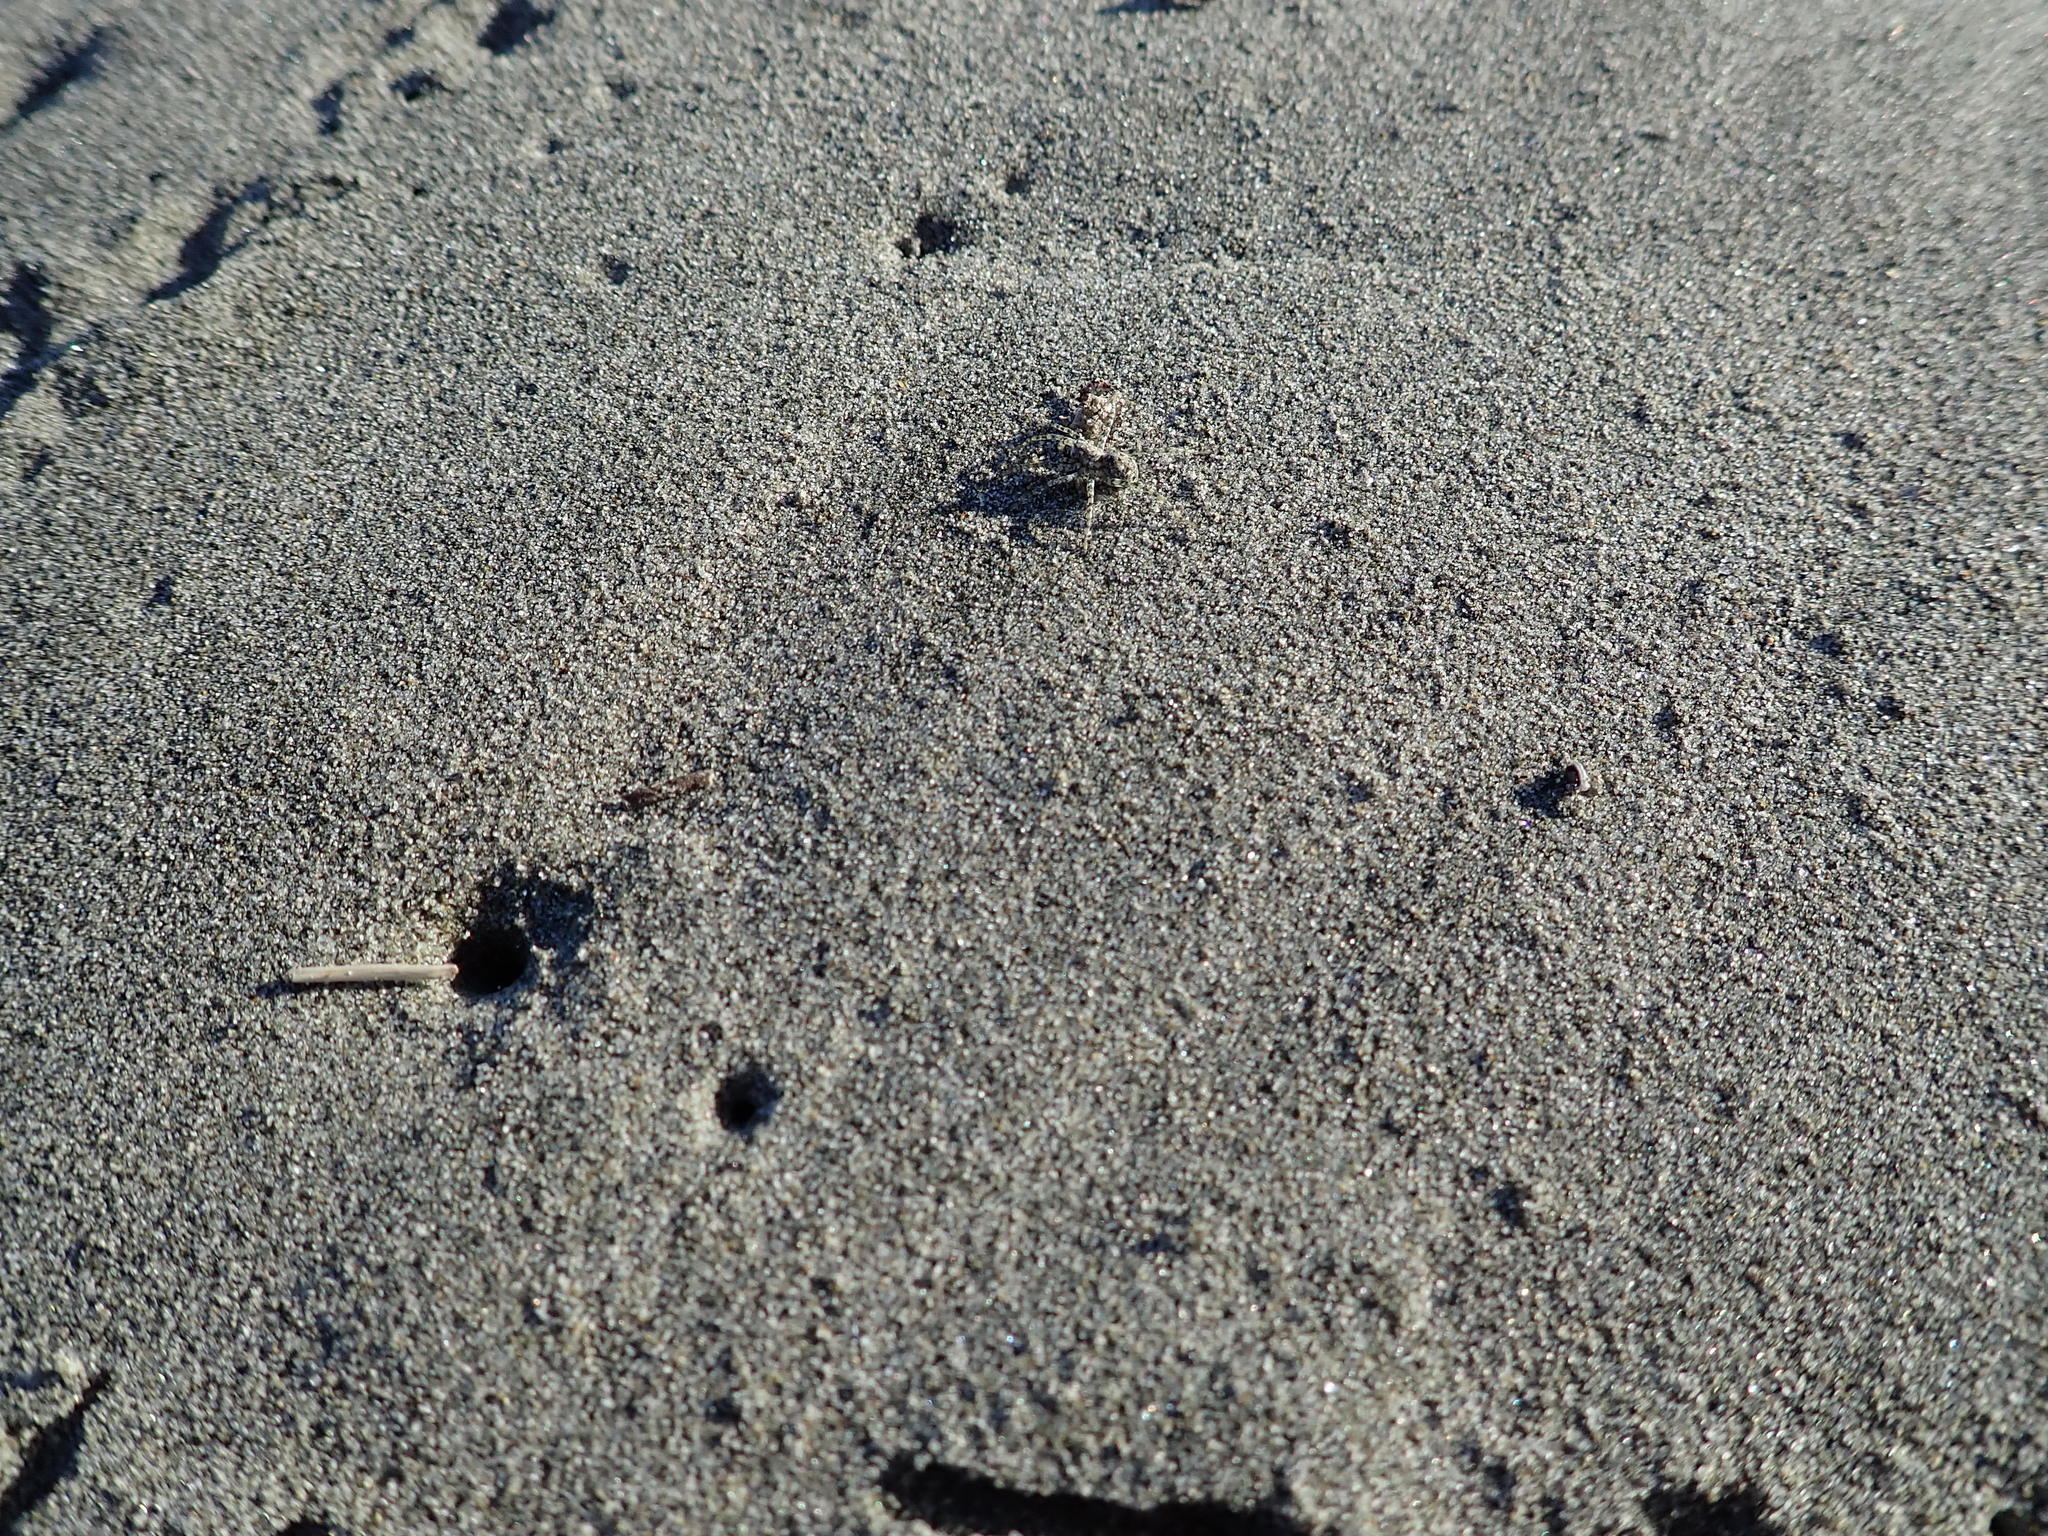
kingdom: Animalia
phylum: Arthropoda
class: Arachnida
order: Araneae
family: Lycosidae
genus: Anoteropsis
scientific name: Anoteropsis litoralis
